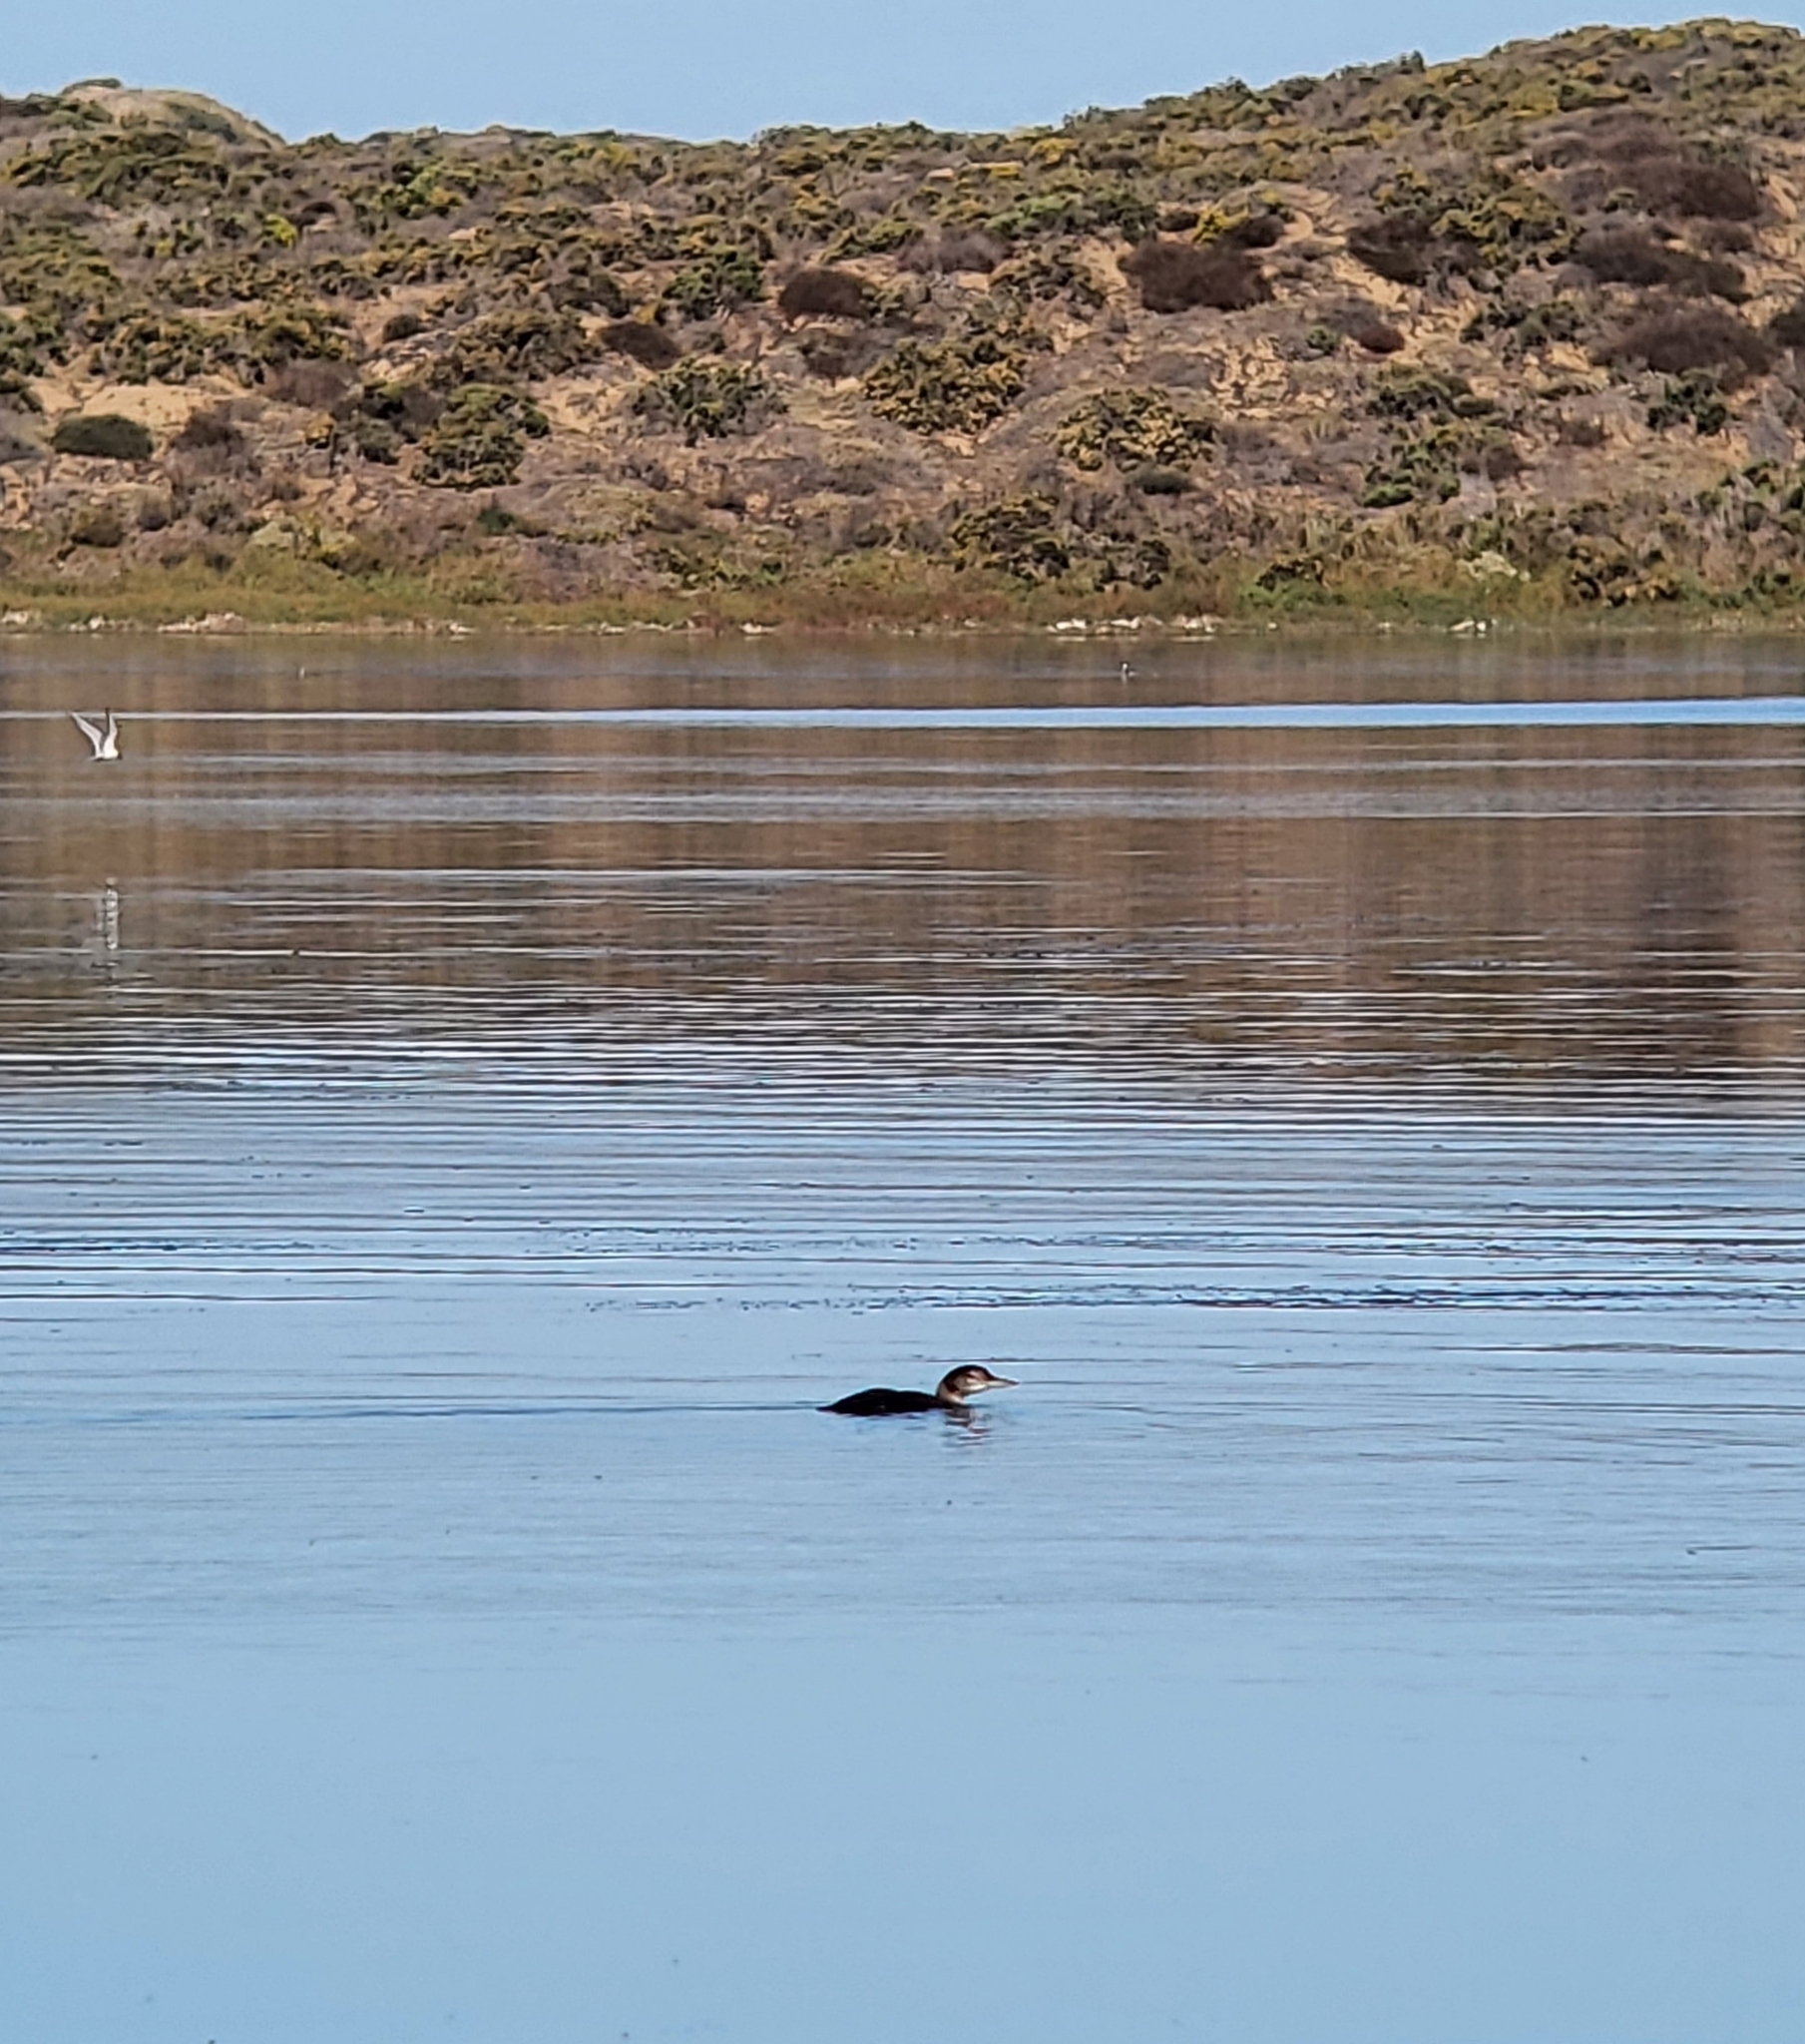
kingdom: Animalia
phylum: Chordata
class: Aves
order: Gaviiformes
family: Gaviidae
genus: Gavia
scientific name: Gavia immer
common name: Common loon
